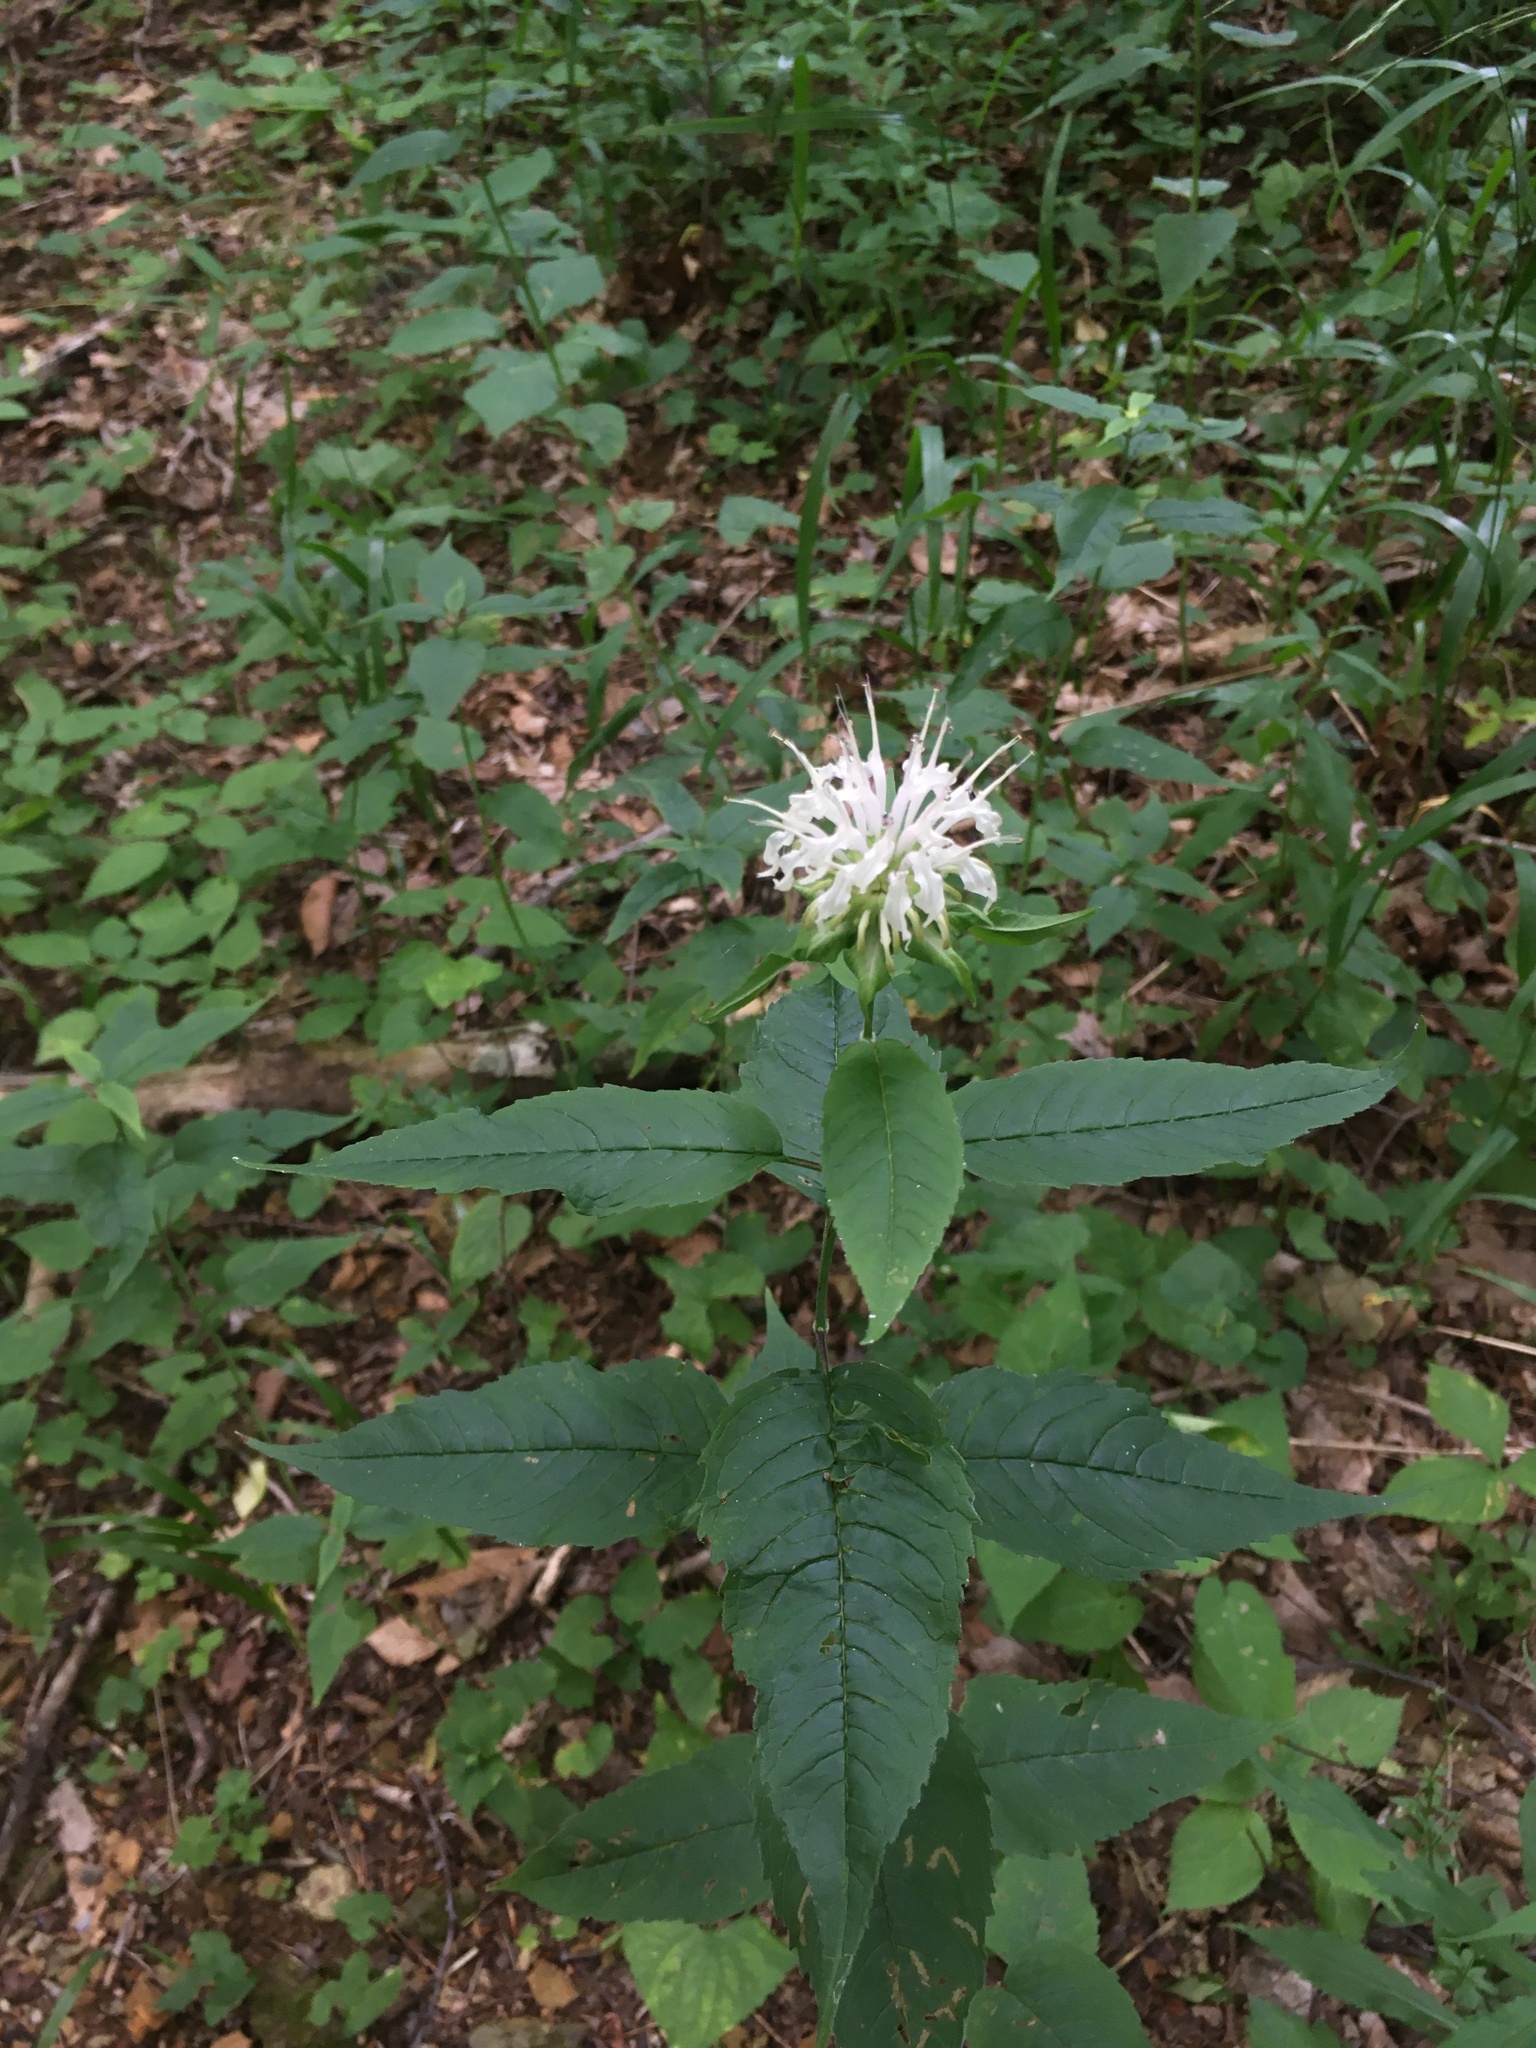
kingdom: Plantae
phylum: Tracheophyta
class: Magnoliopsida
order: Lamiales
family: Lamiaceae
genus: Monarda
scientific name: Monarda clinopodia
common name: Basil beebalm
